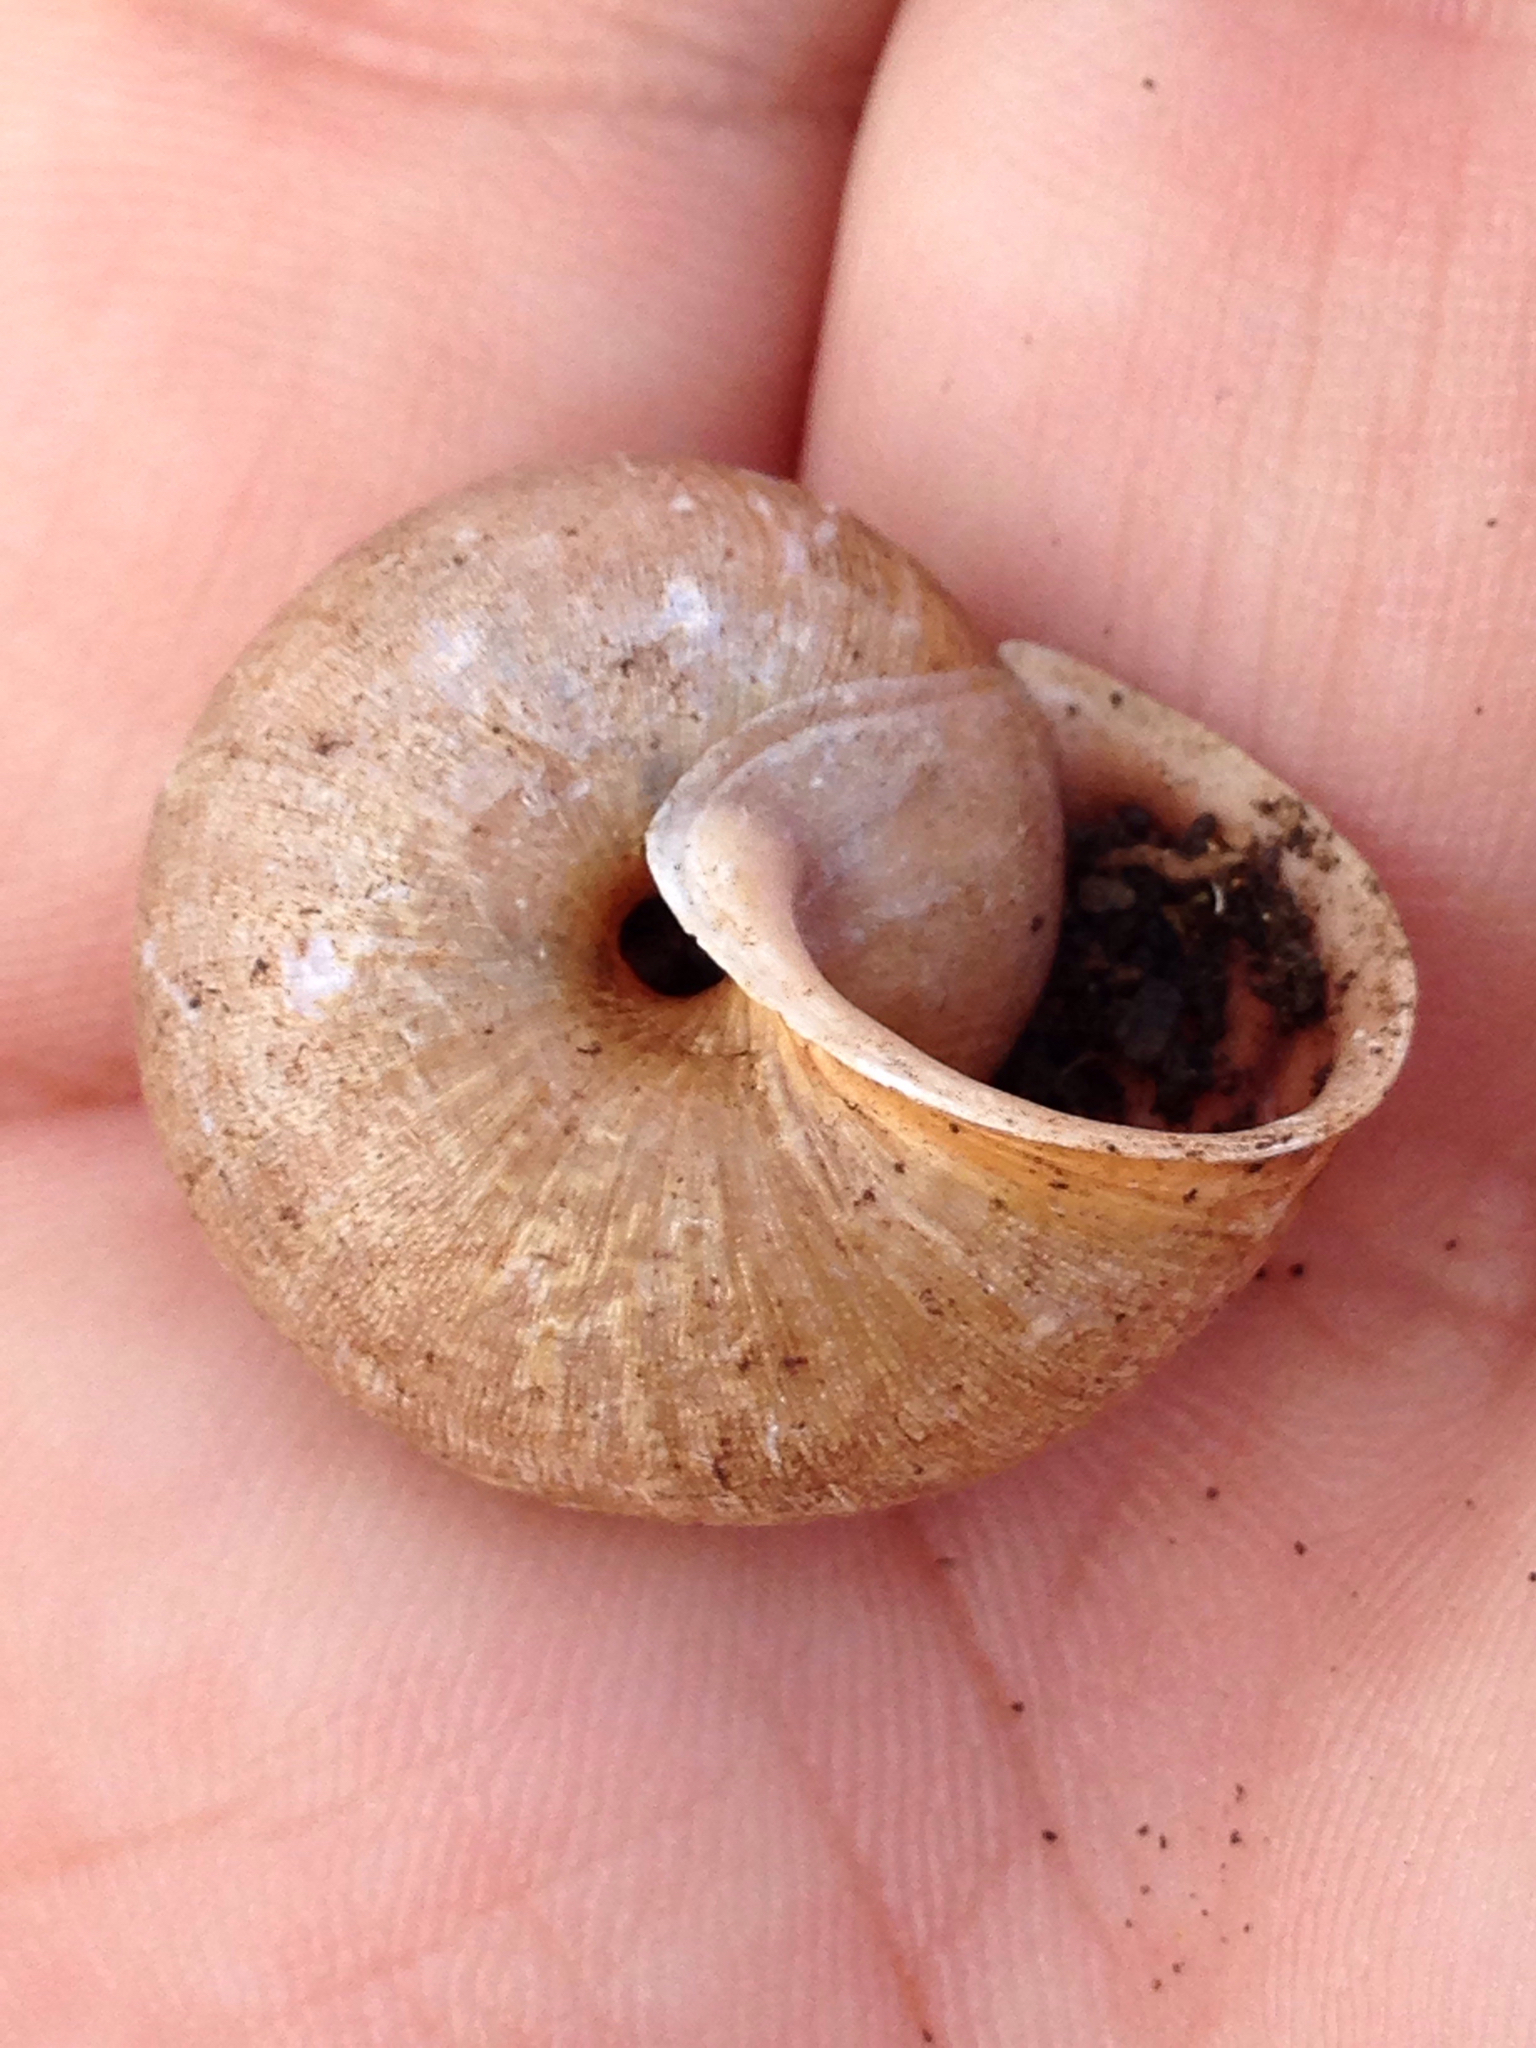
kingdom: Animalia
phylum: Mollusca
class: Gastropoda
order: Stylommatophora
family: Xanthonychidae
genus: Helminthoglypta
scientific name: Helminthoglypta diabloensis
